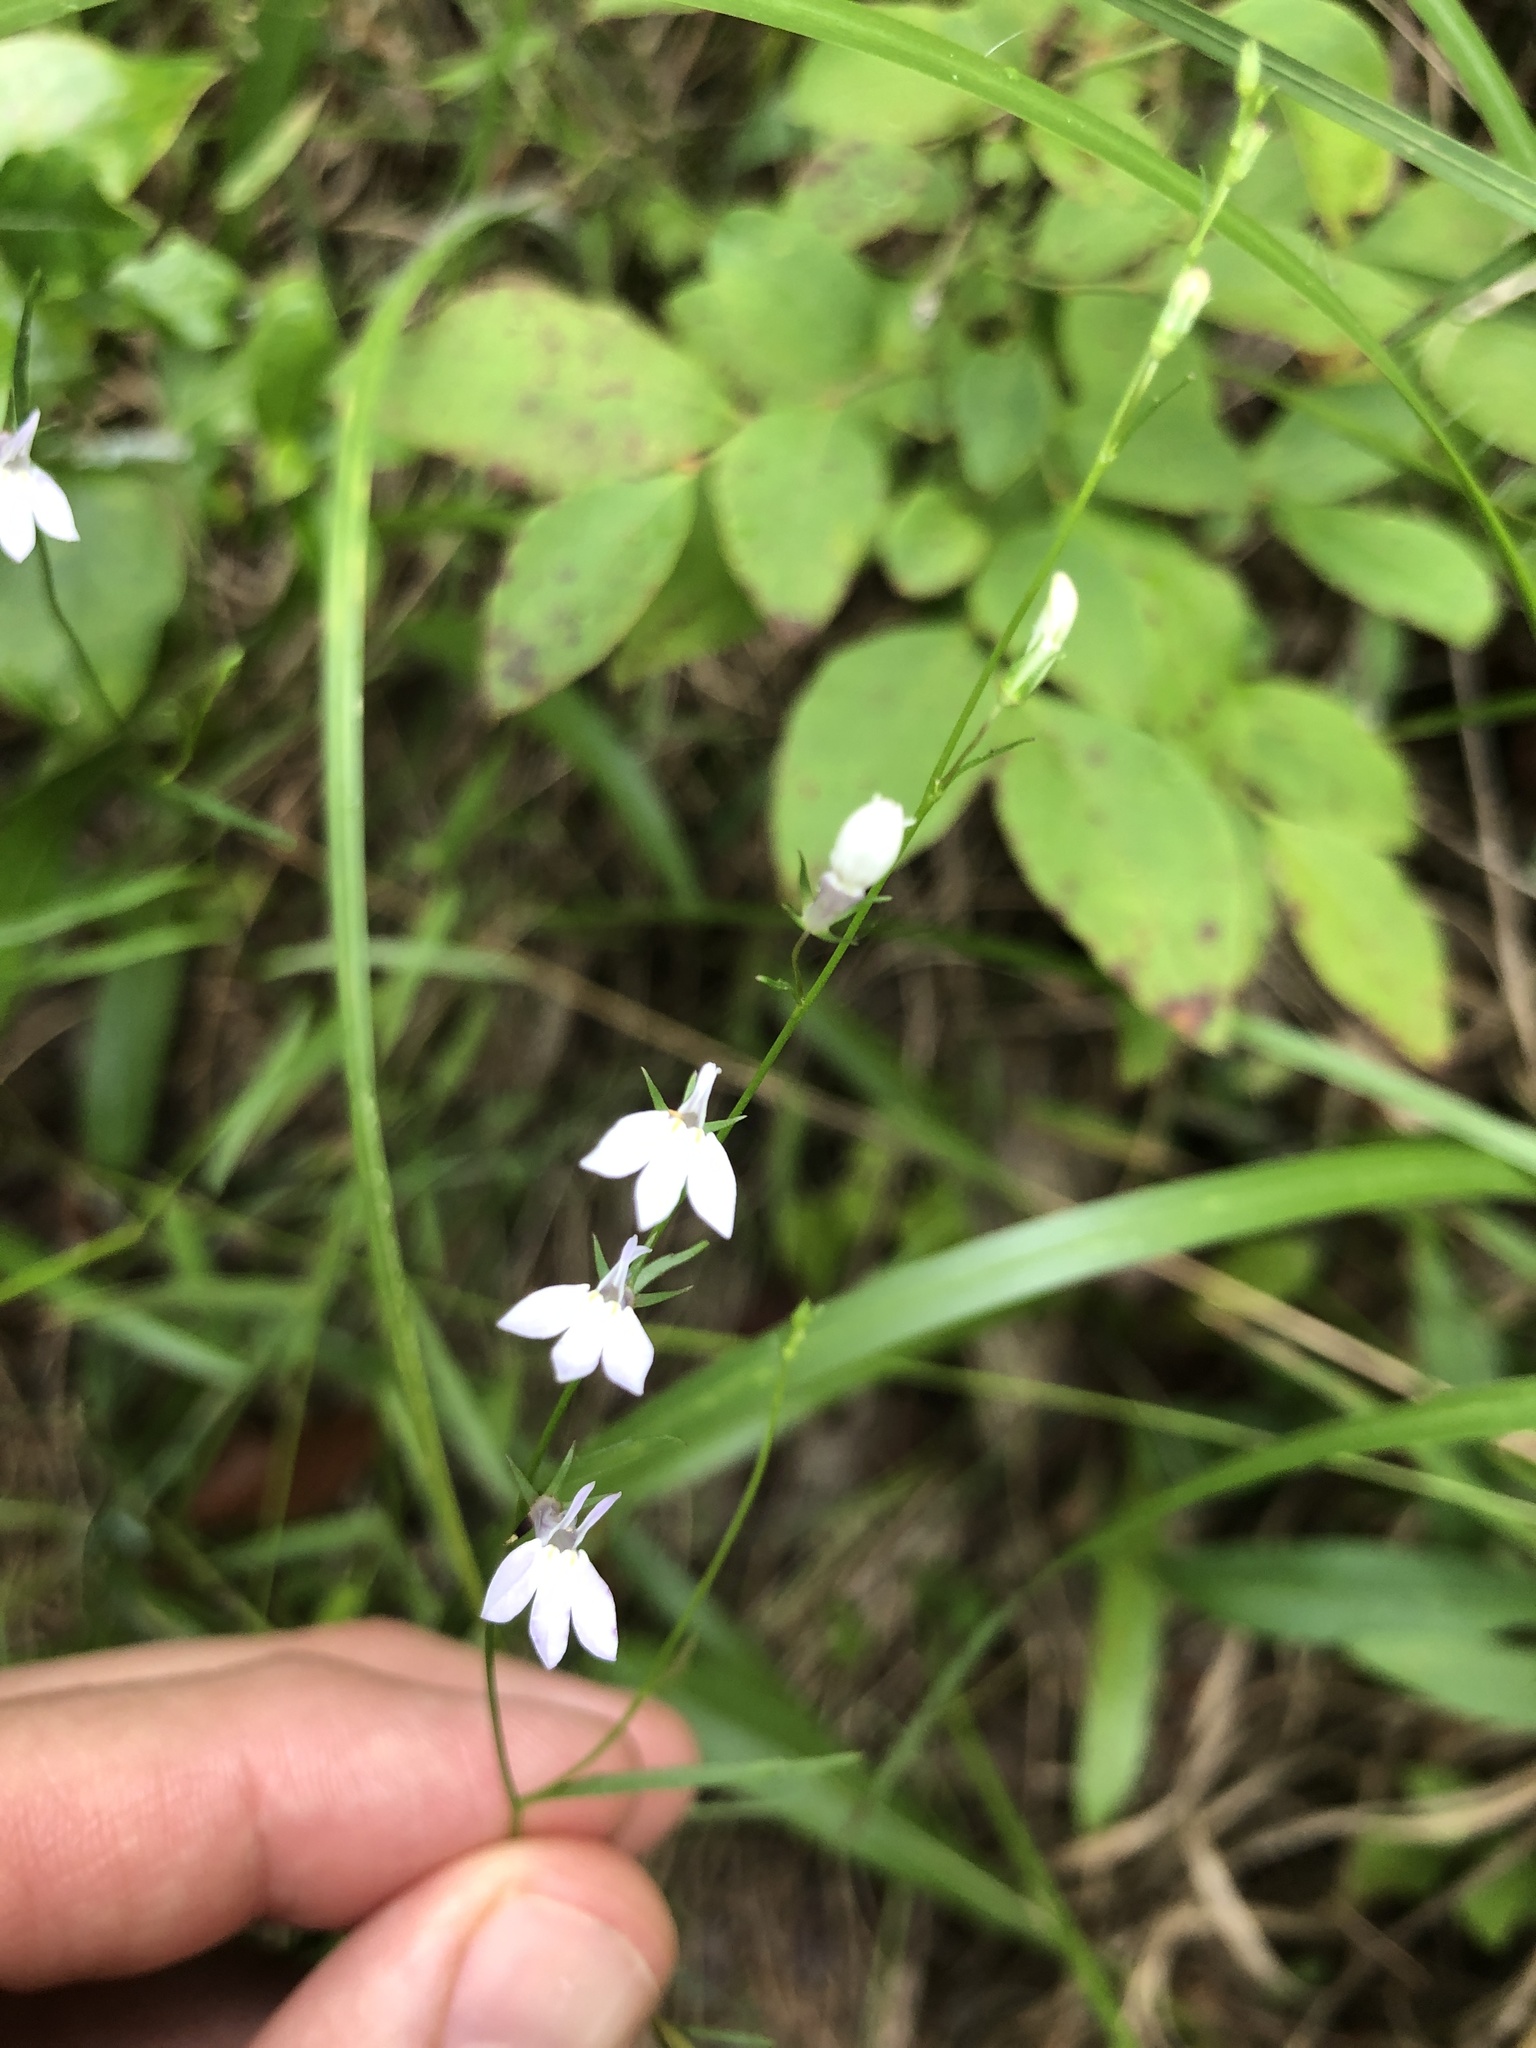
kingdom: Plantae
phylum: Tracheophyta
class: Magnoliopsida
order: Asterales
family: Campanulaceae
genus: Lobelia
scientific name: Lobelia nuttallii
